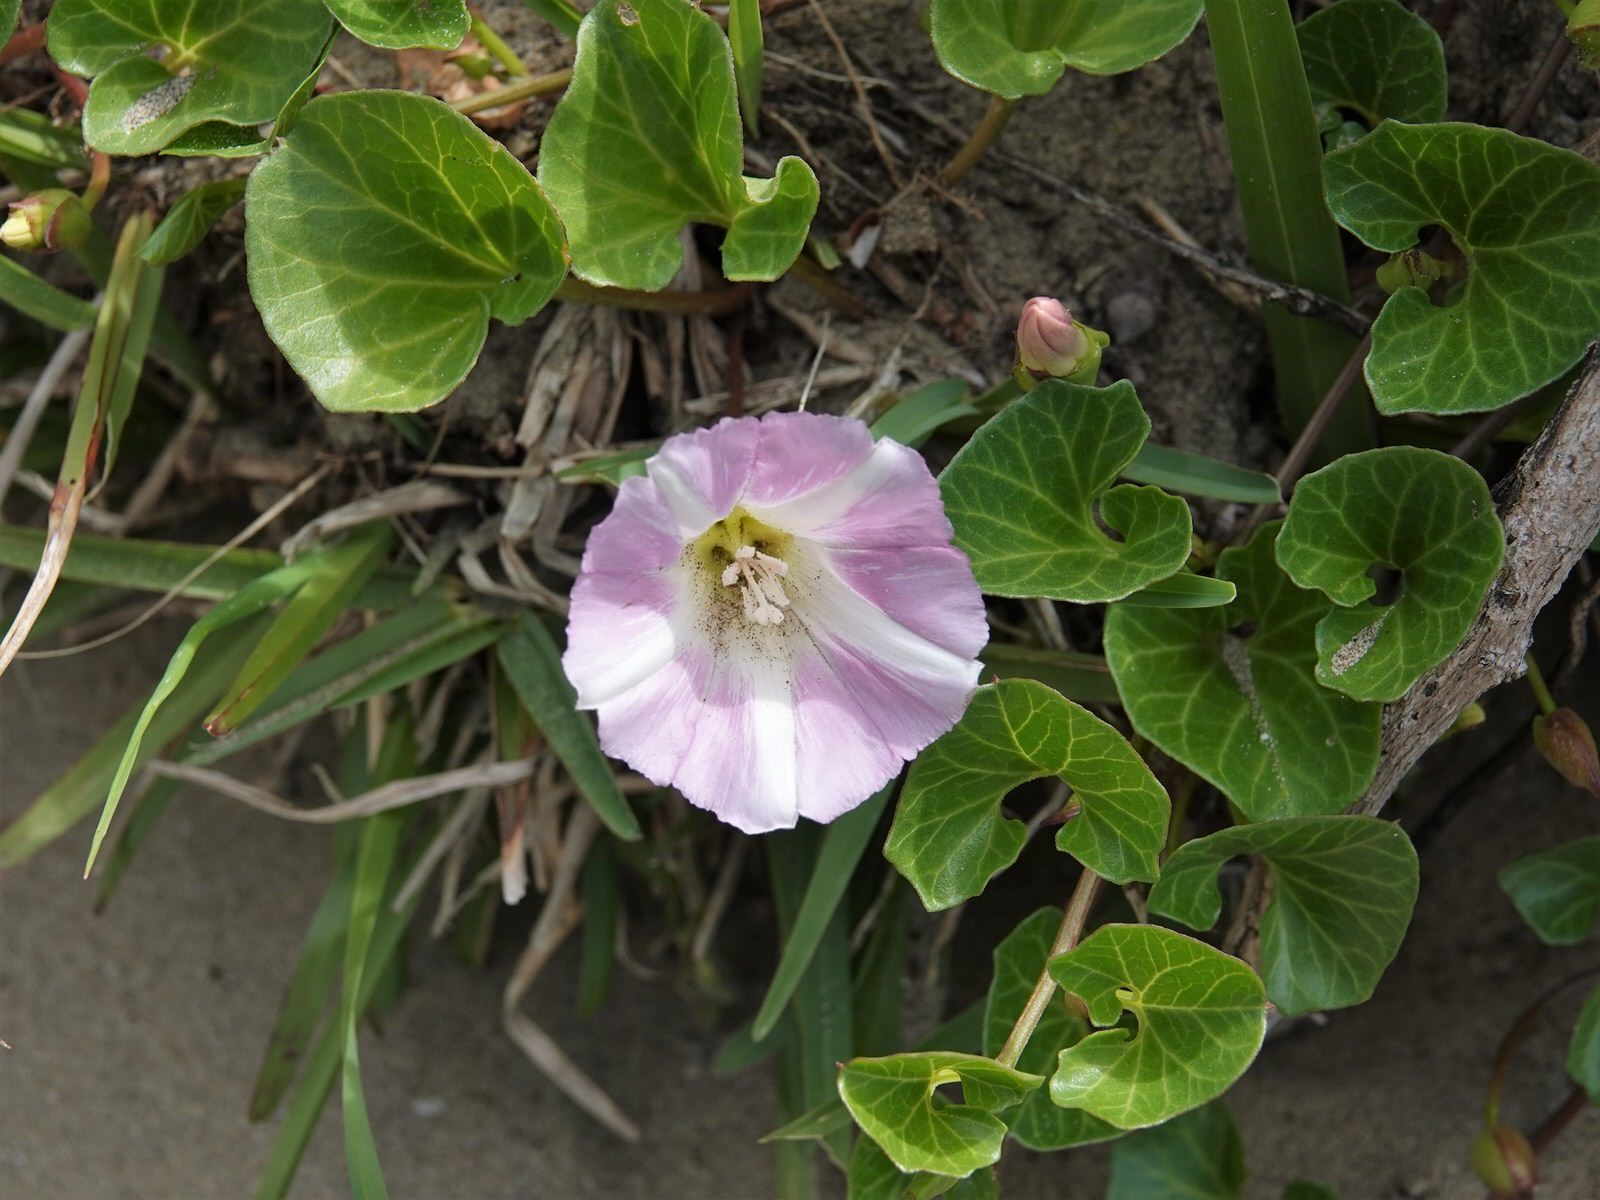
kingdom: Plantae
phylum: Tracheophyta
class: Magnoliopsida
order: Solanales
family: Convolvulaceae
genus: Calystegia
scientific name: Calystegia soldanella
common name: Sea bindweed
